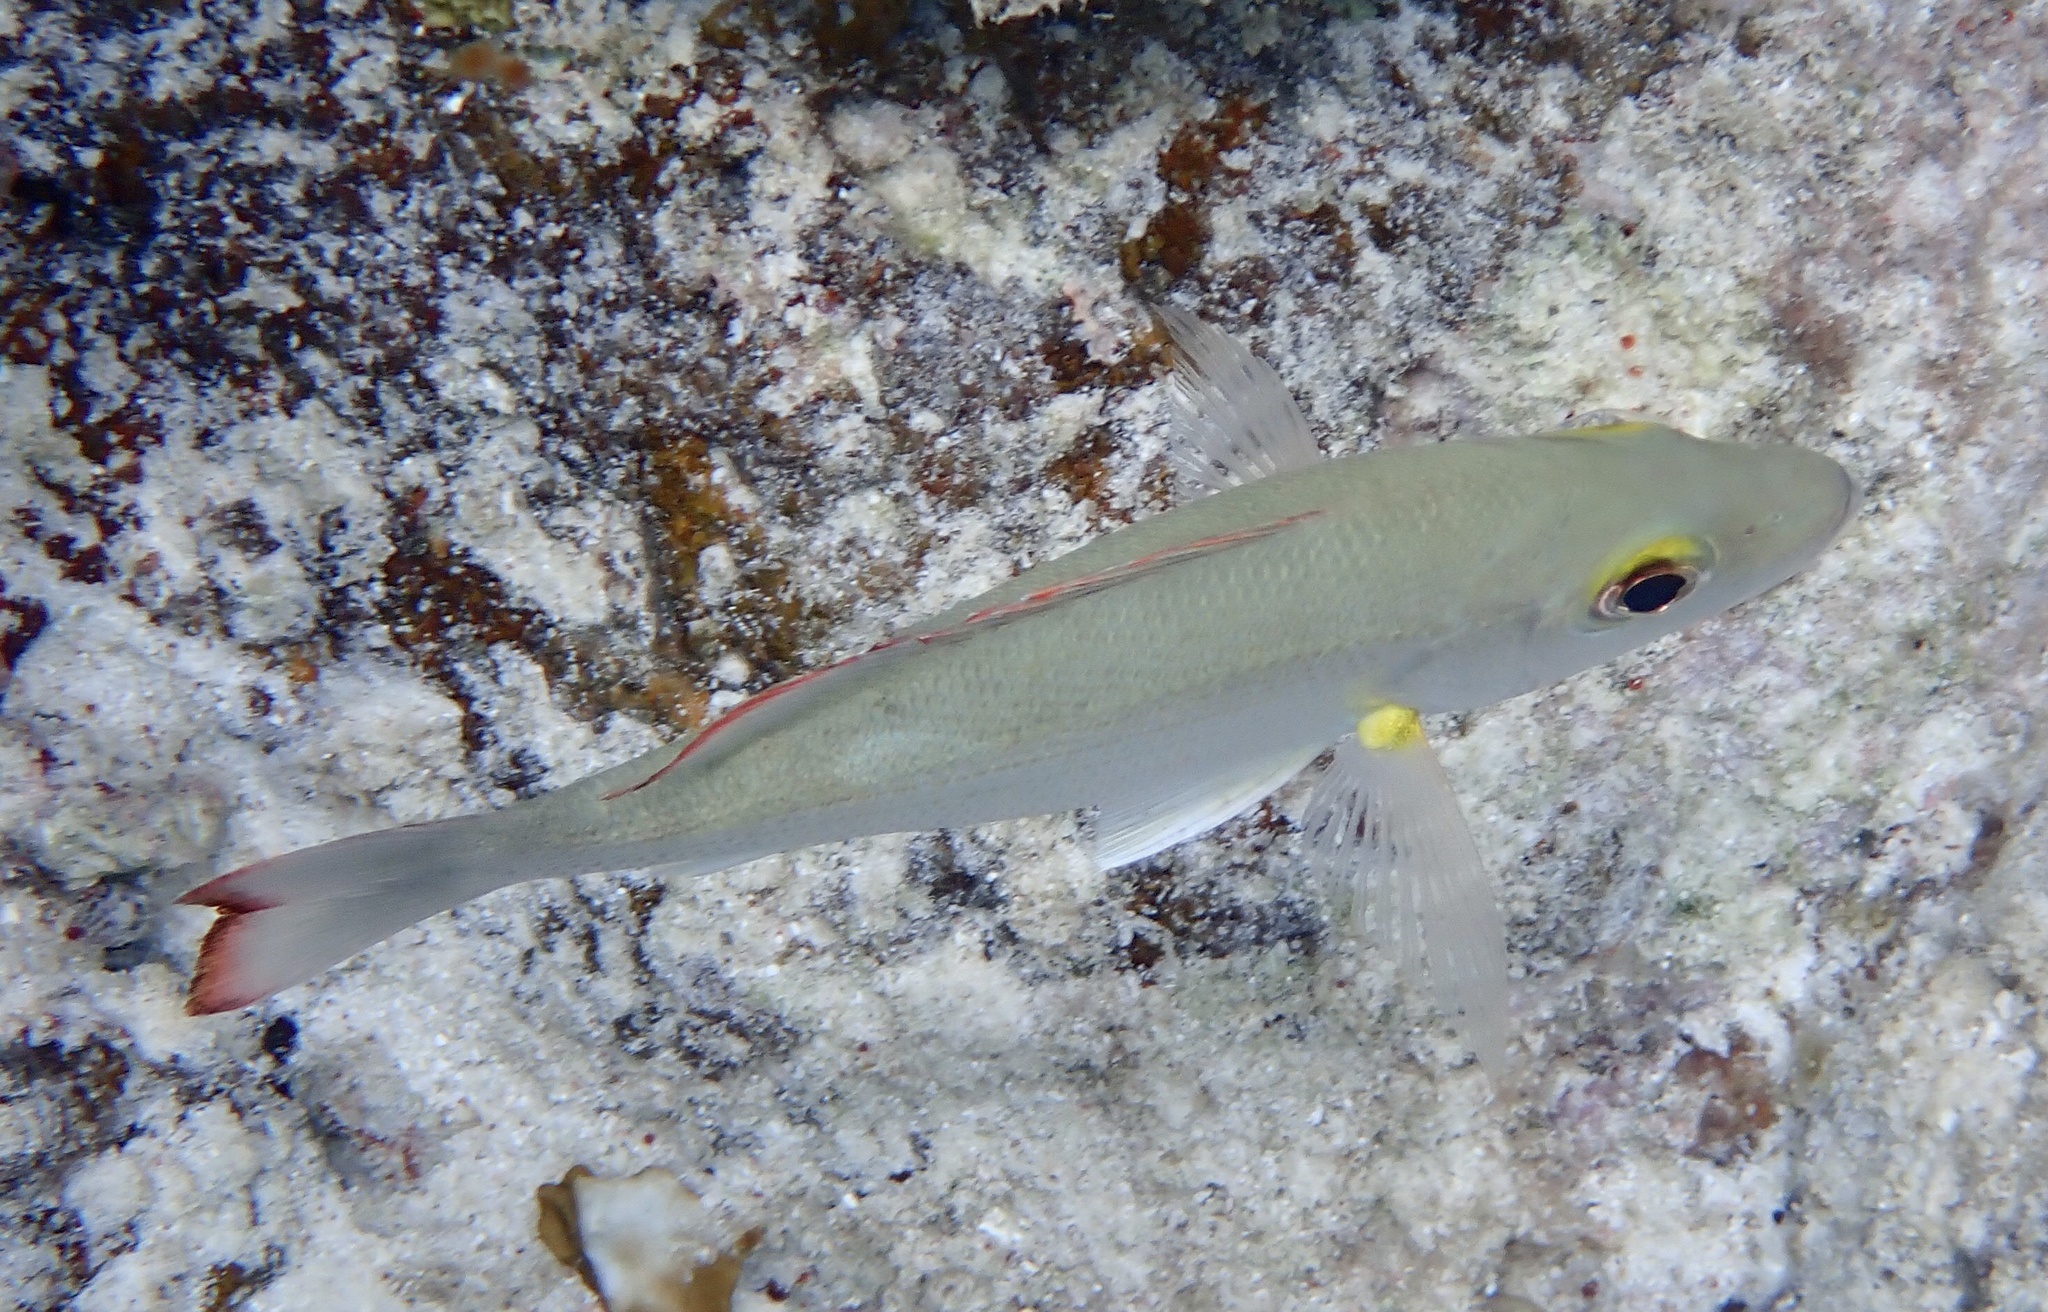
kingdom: Animalia
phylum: Chordata
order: Perciformes
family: Lutjanidae
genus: Lutjanus
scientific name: Lutjanus mahogoni
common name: Spot snapper
